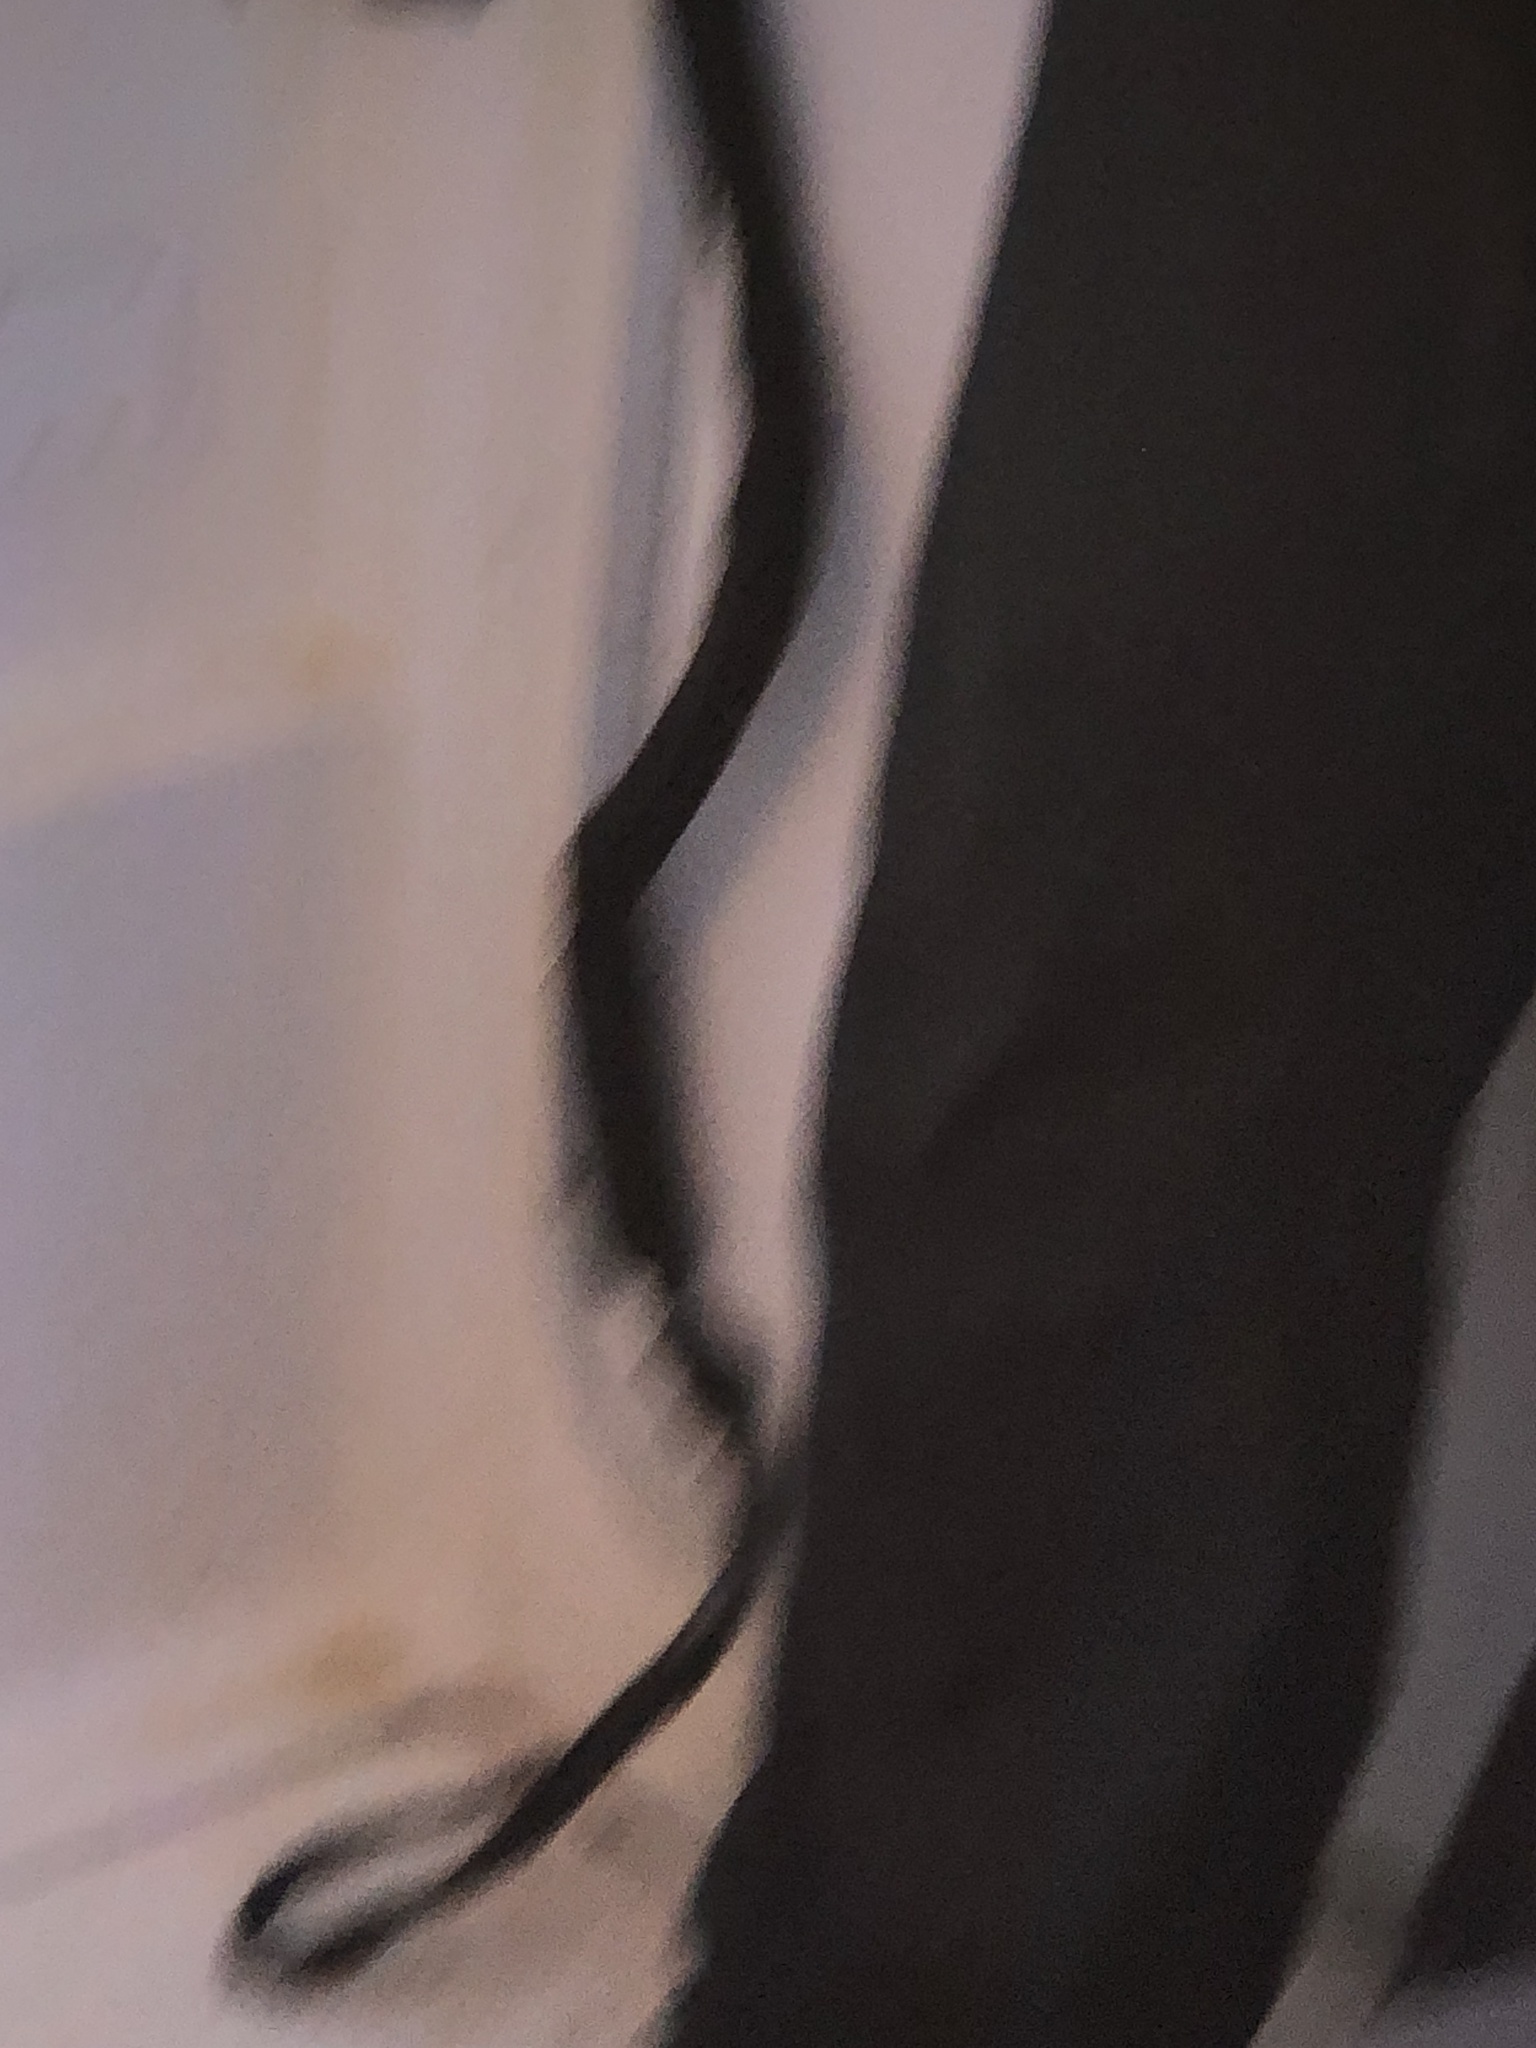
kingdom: Animalia
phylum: Arthropoda
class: Malacostraca
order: Decapoda
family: Cancridae
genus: Metacarcinus
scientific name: Metacarcinus magister
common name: Californian crab
